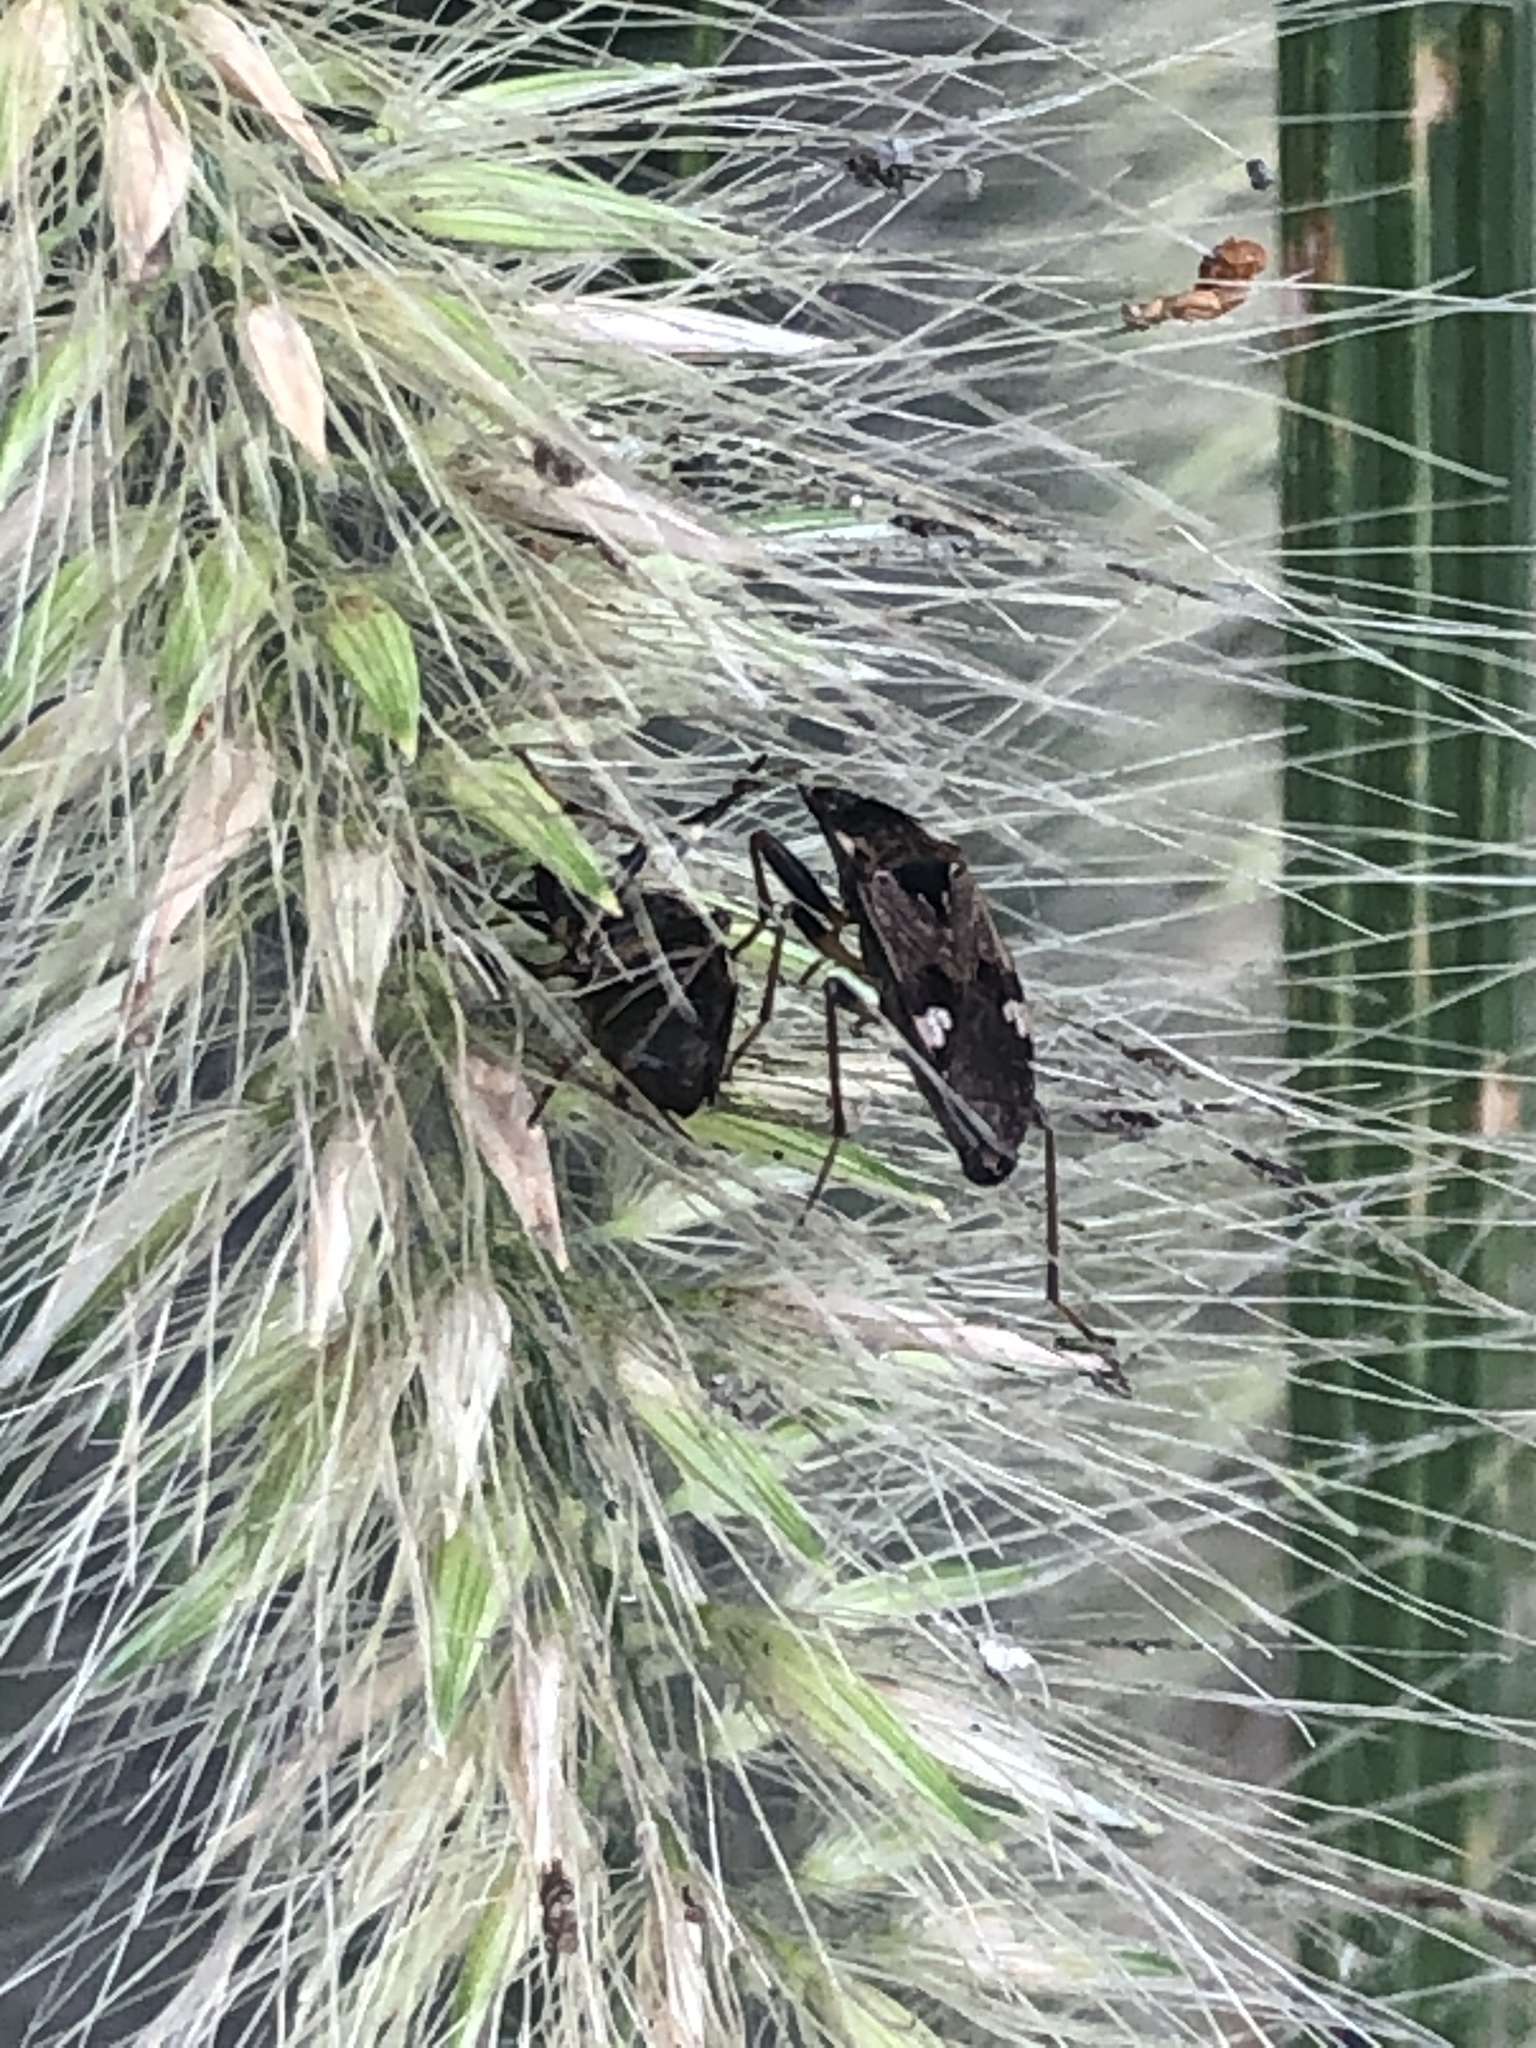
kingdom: Animalia
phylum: Arthropoda
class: Insecta
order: Hemiptera
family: Rhyparochromidae
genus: Panaorus
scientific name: Panaorus csikii
